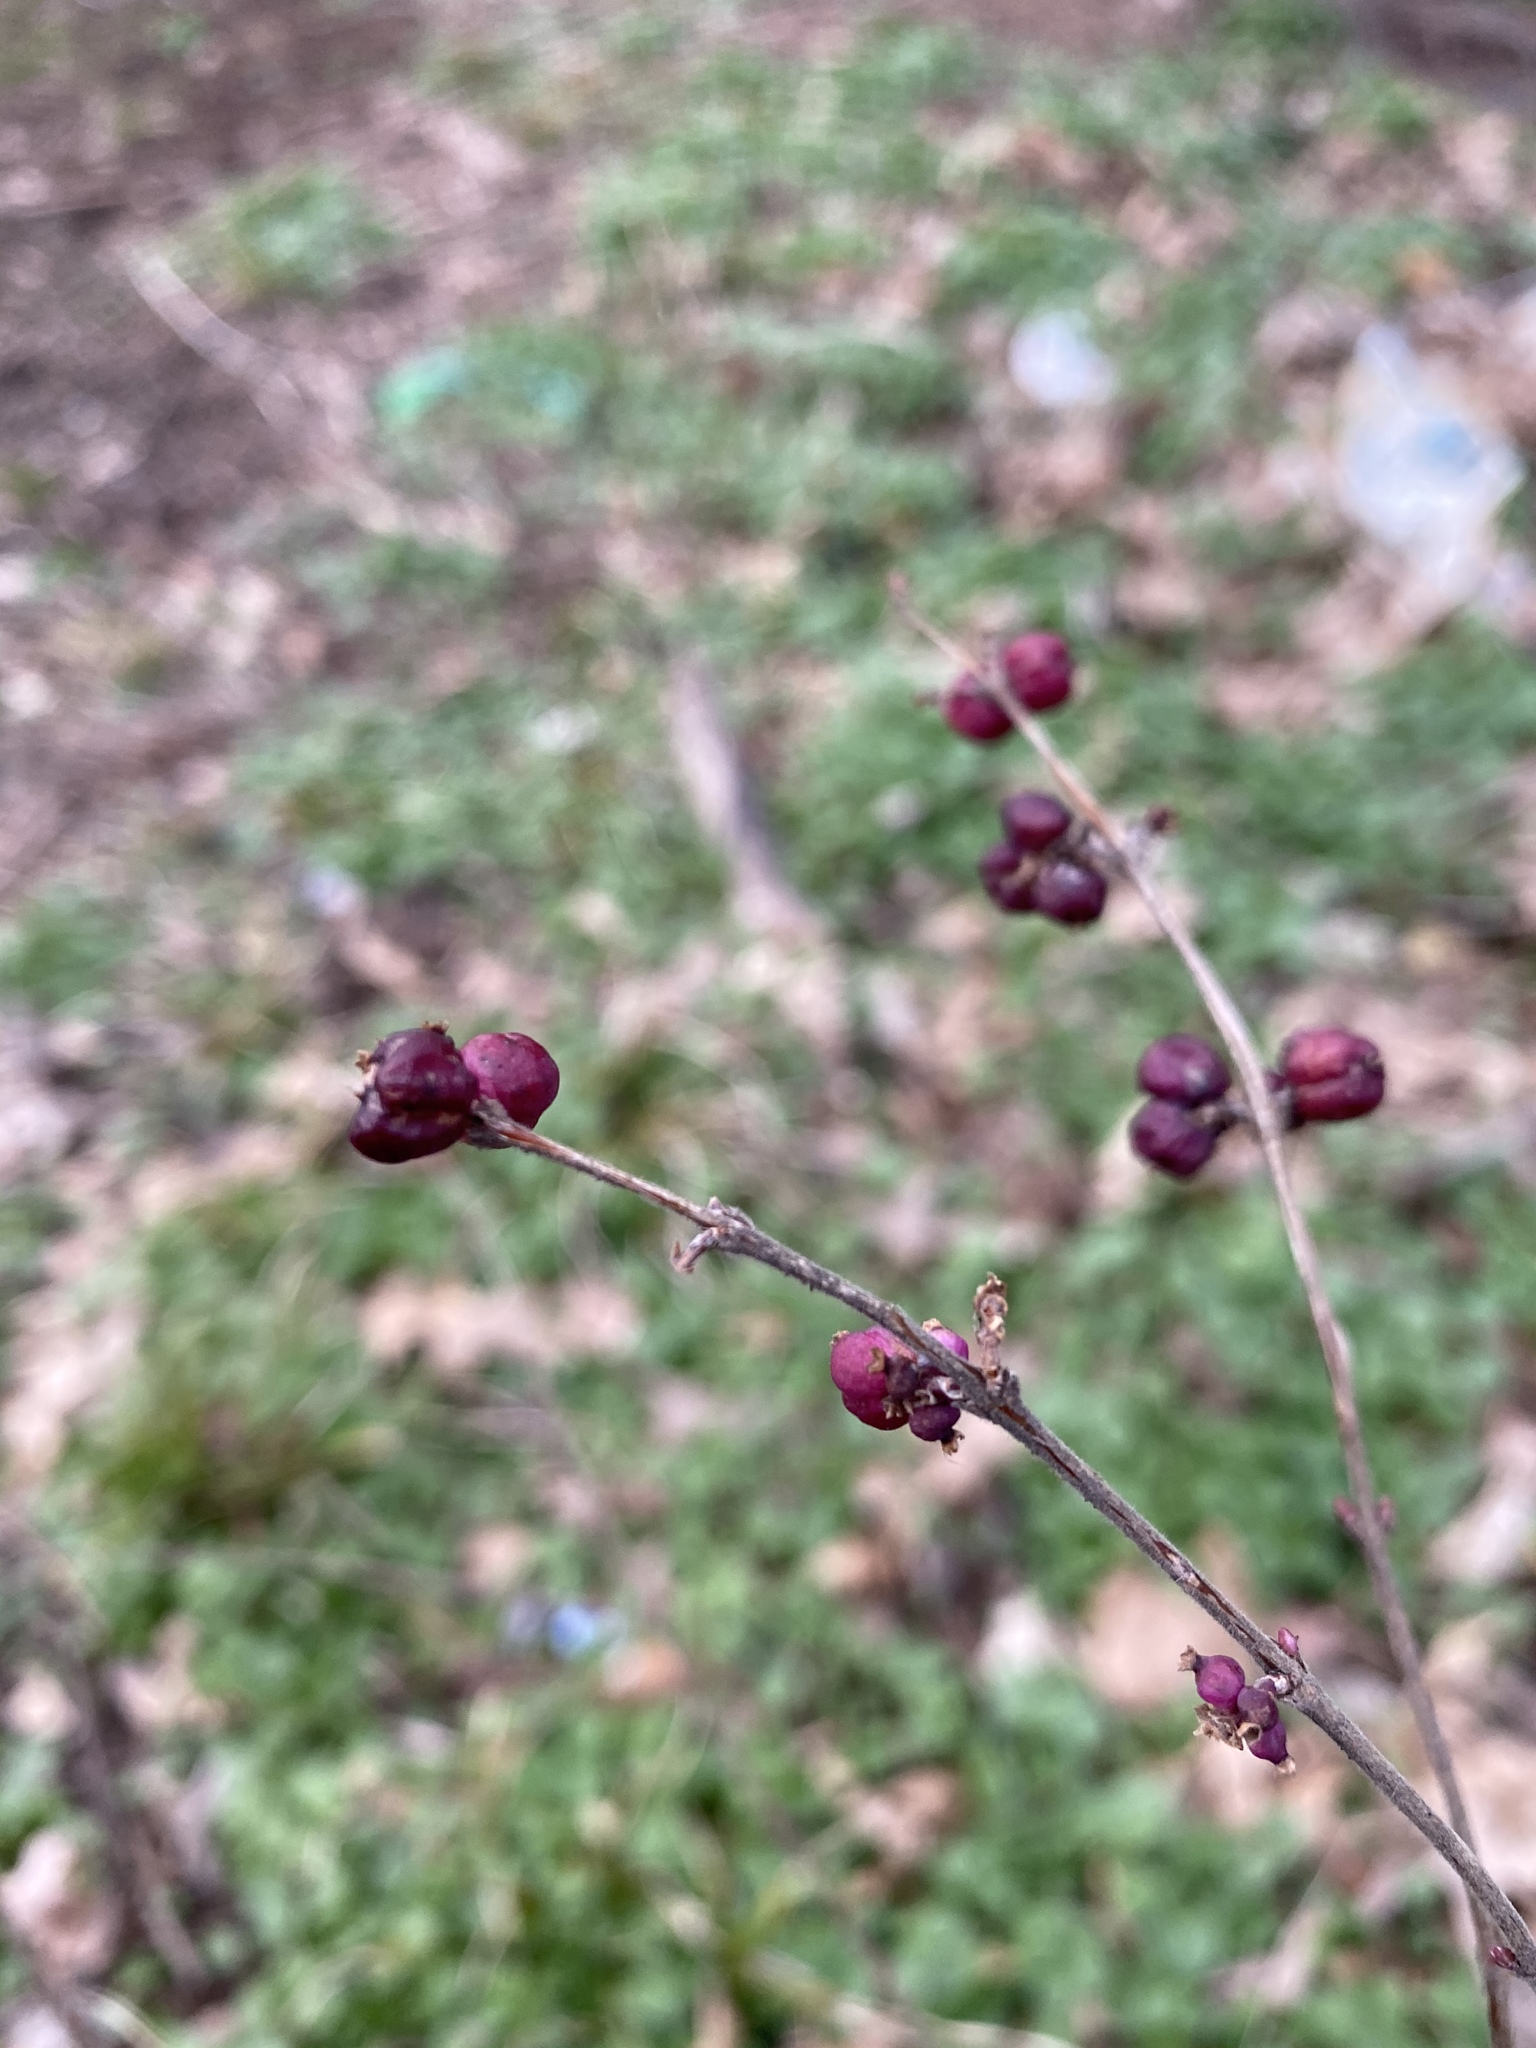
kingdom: Plantae
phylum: Tracheophyta
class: Magnoliopsida
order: Dipsacales
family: Caprifoliaceae
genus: Symphoricarpos
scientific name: Symphoricarpos orbiculatus
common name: Coralberry
